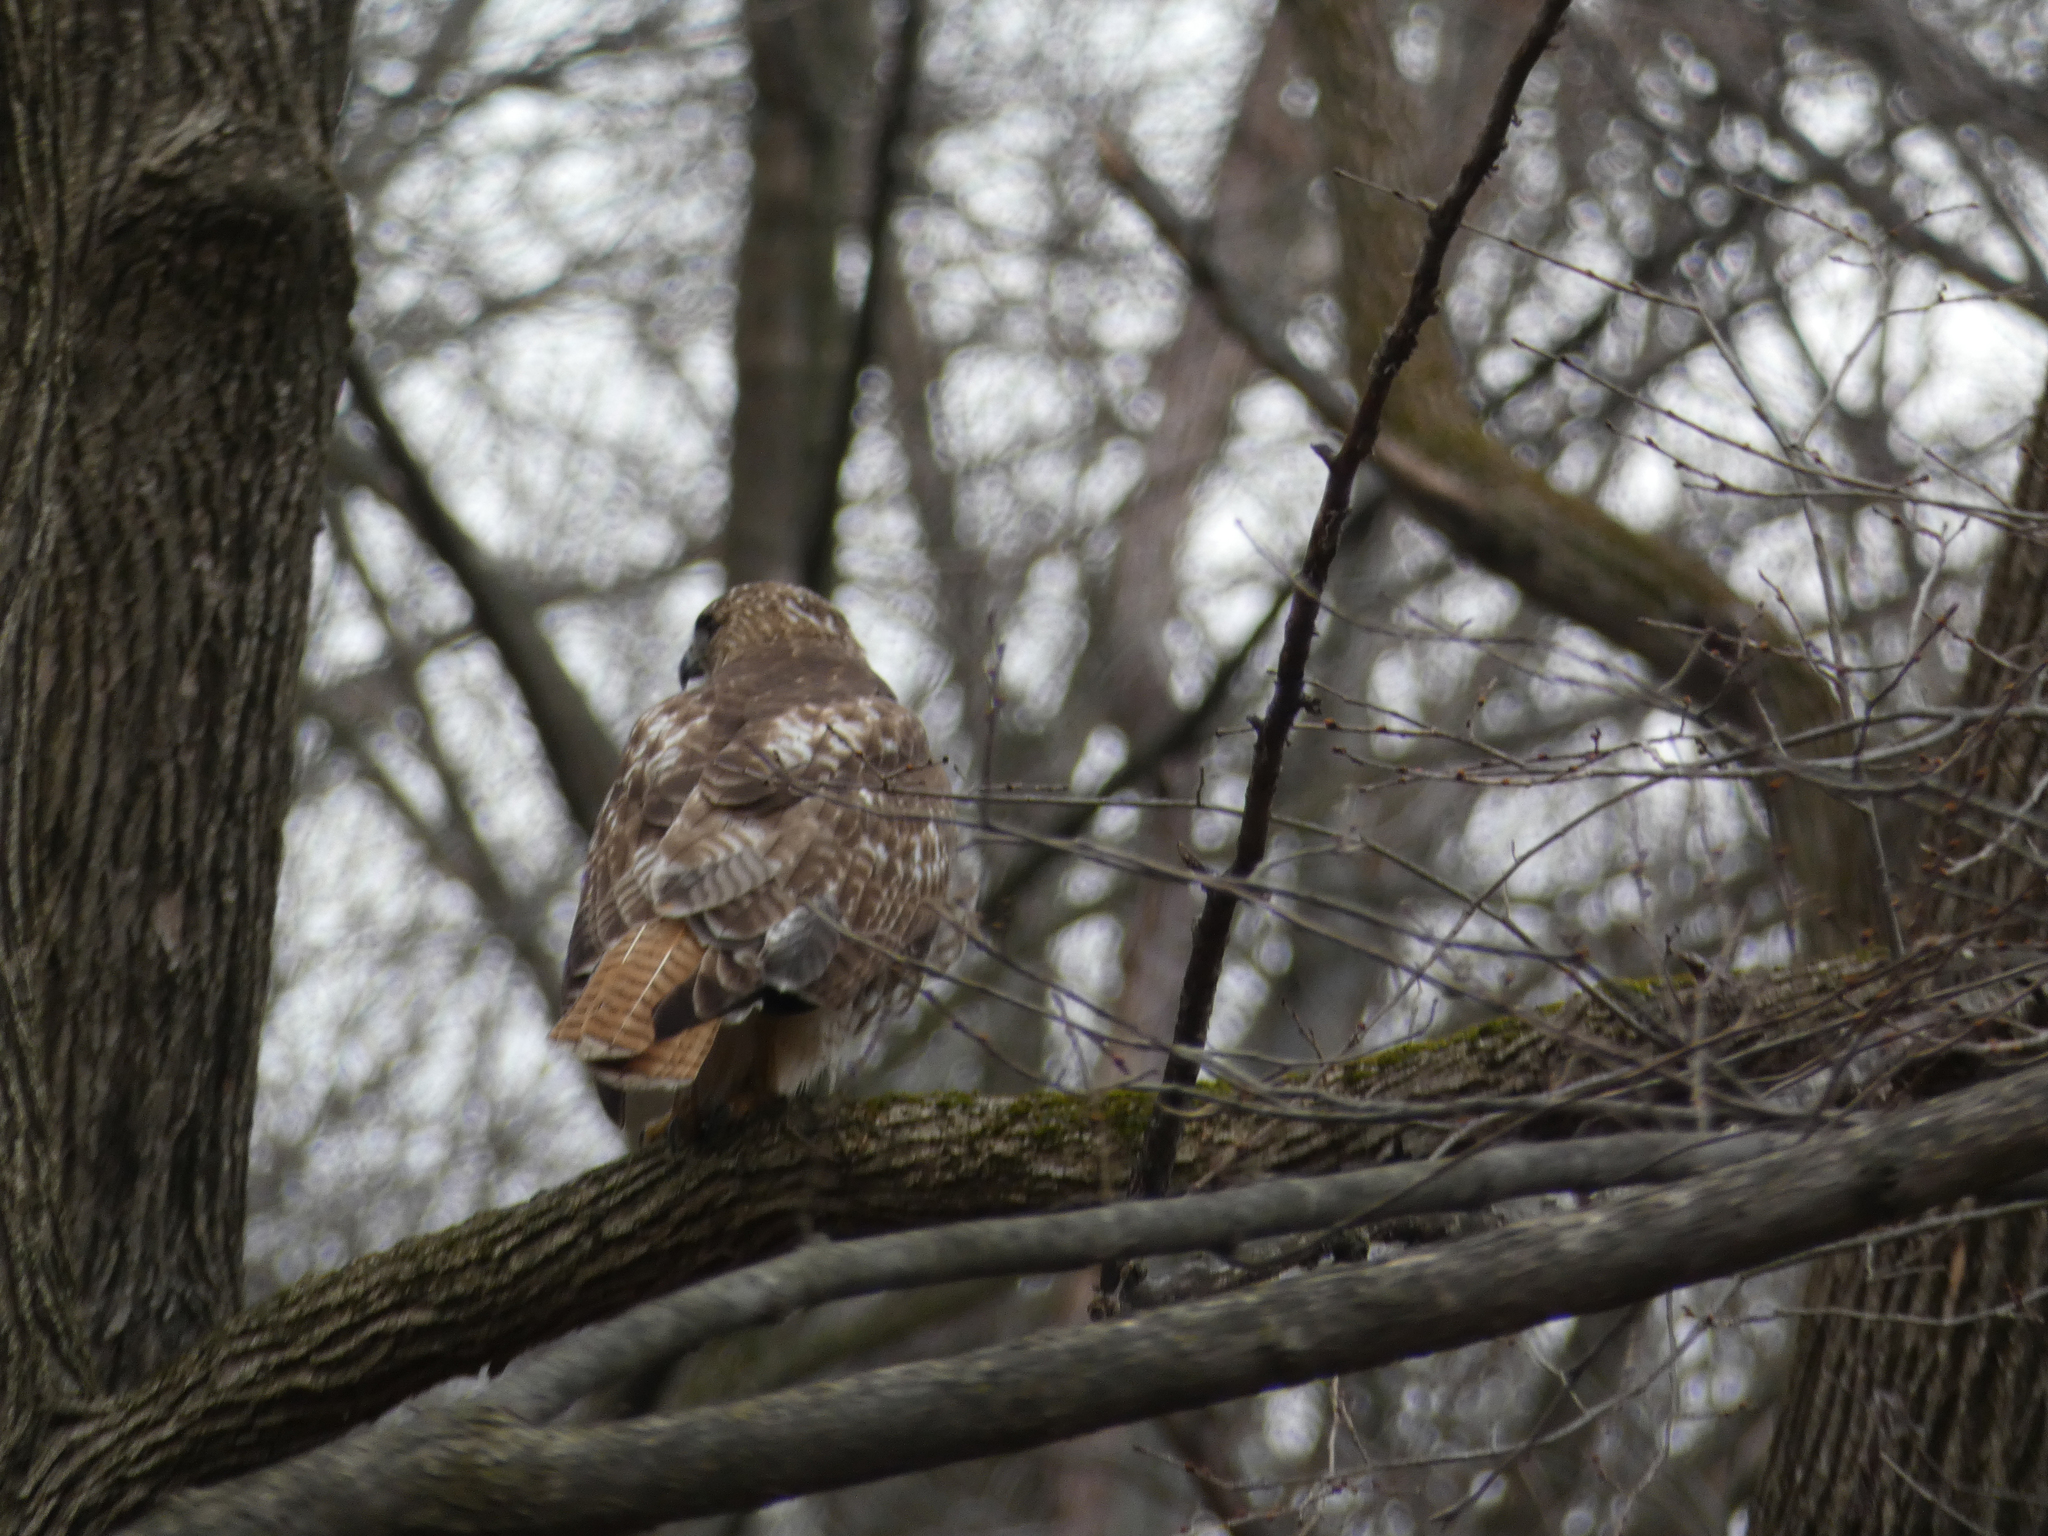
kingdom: Animalia
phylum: Chordata
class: Aves
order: Accipitriformes
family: Accipitridae
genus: Buteo
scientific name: Buteo jamaicensis
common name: Red-tailed hawk
